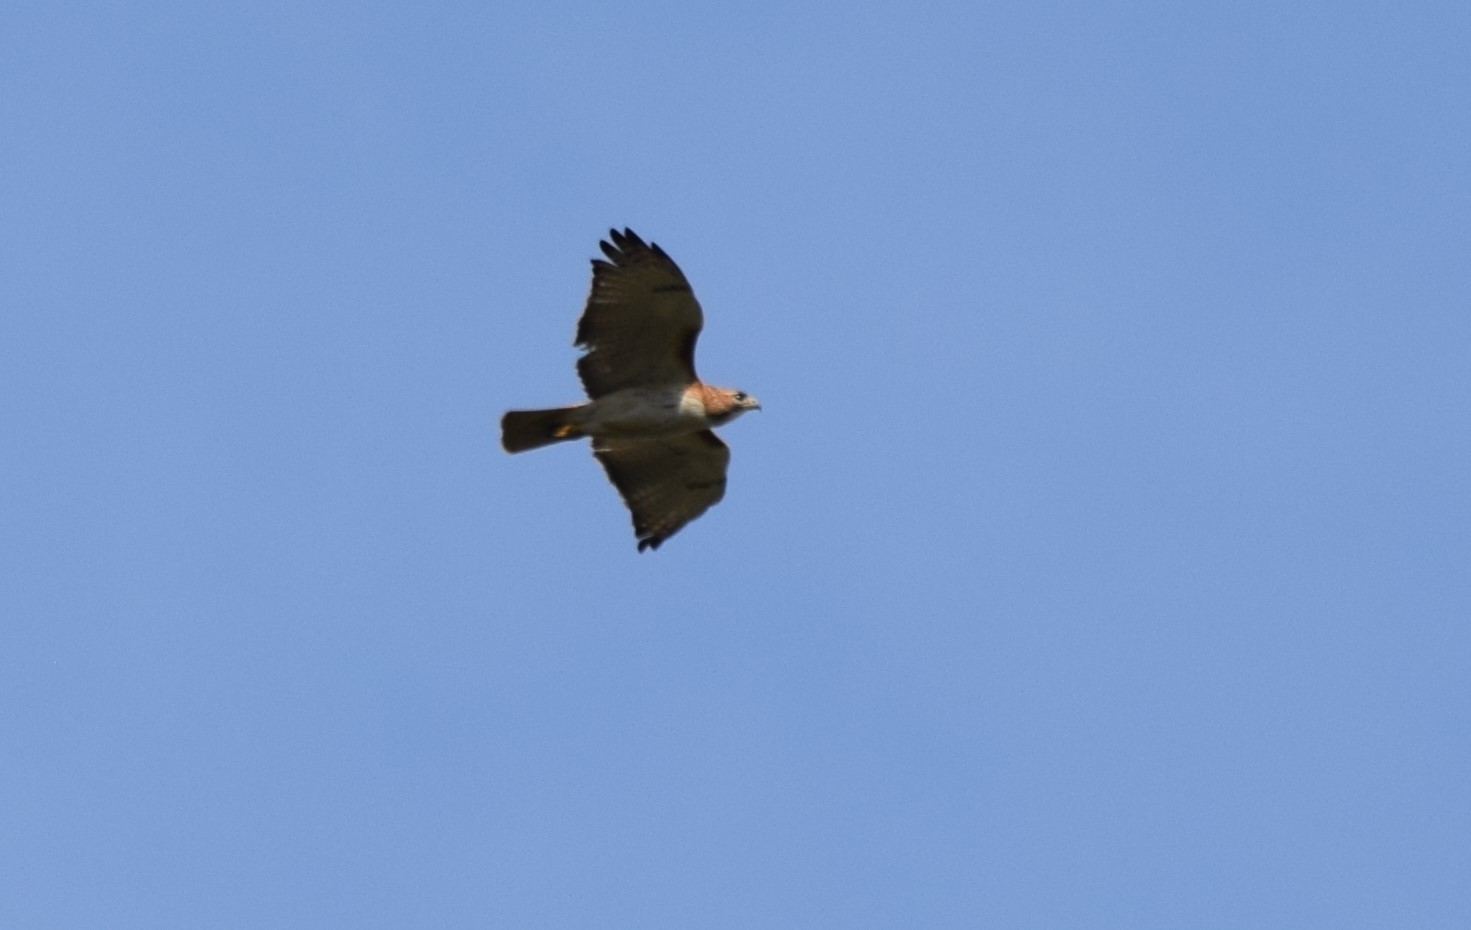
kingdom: Animalia
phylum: Chordata
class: Aves
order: Accipitriformes
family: Accipitridae
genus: Buteo
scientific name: Buteo jamaicensis
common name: Red-tailed hawk
